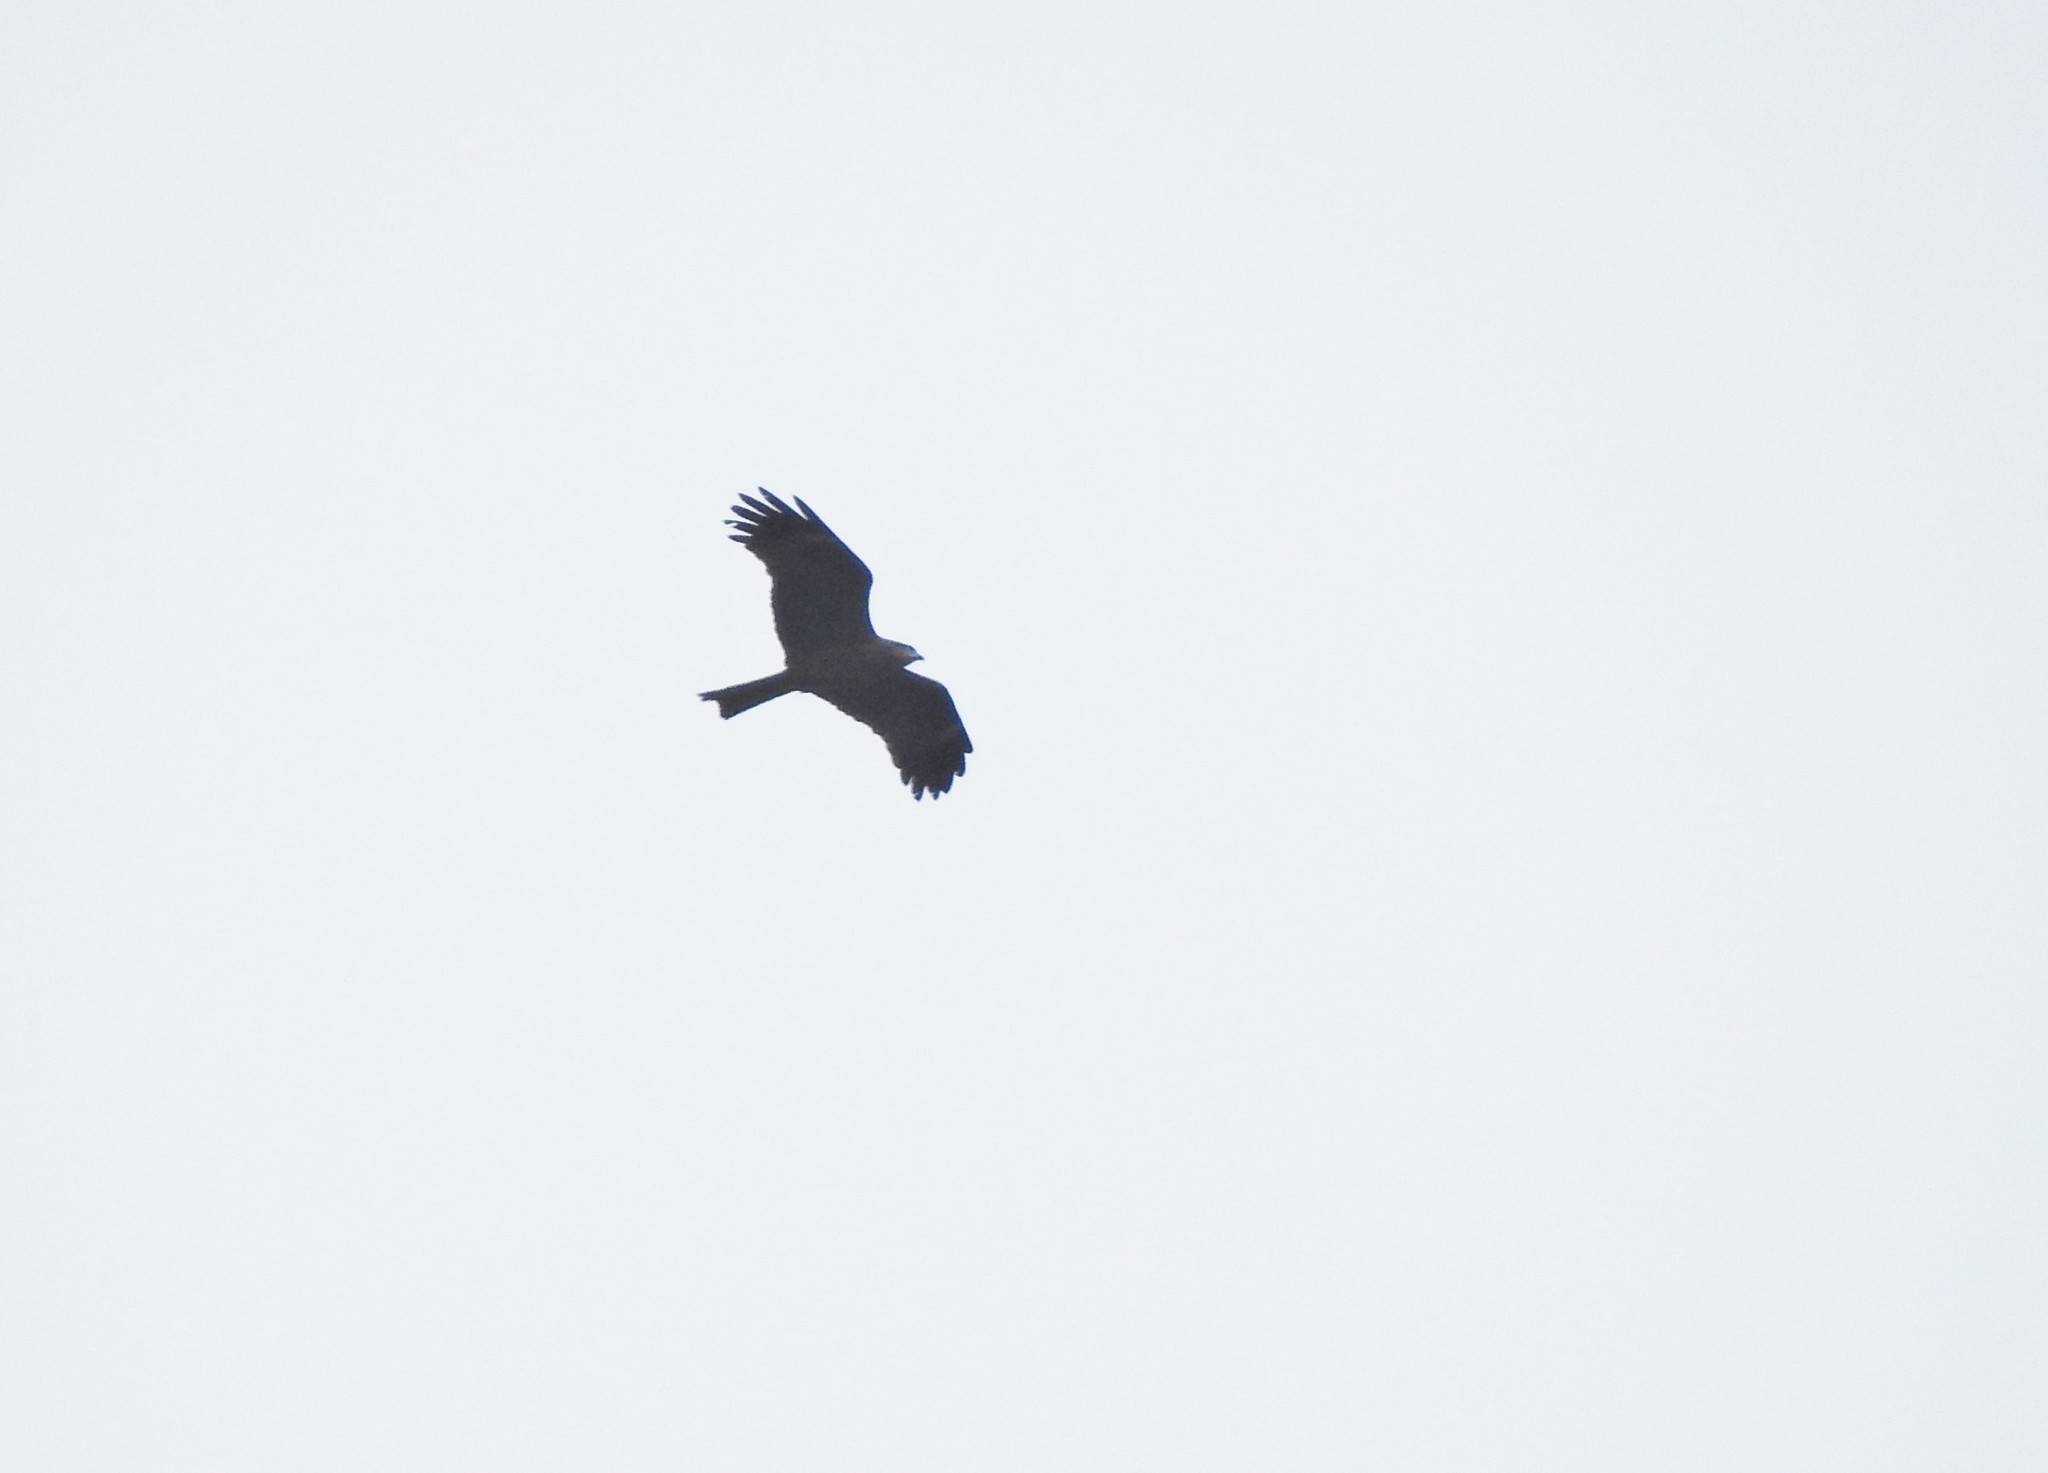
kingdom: Animalia
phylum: Chordata
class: Aves
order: Accipitriformes
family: Accipitridae
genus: Milvus
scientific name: Milvus migrans
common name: Black kite
